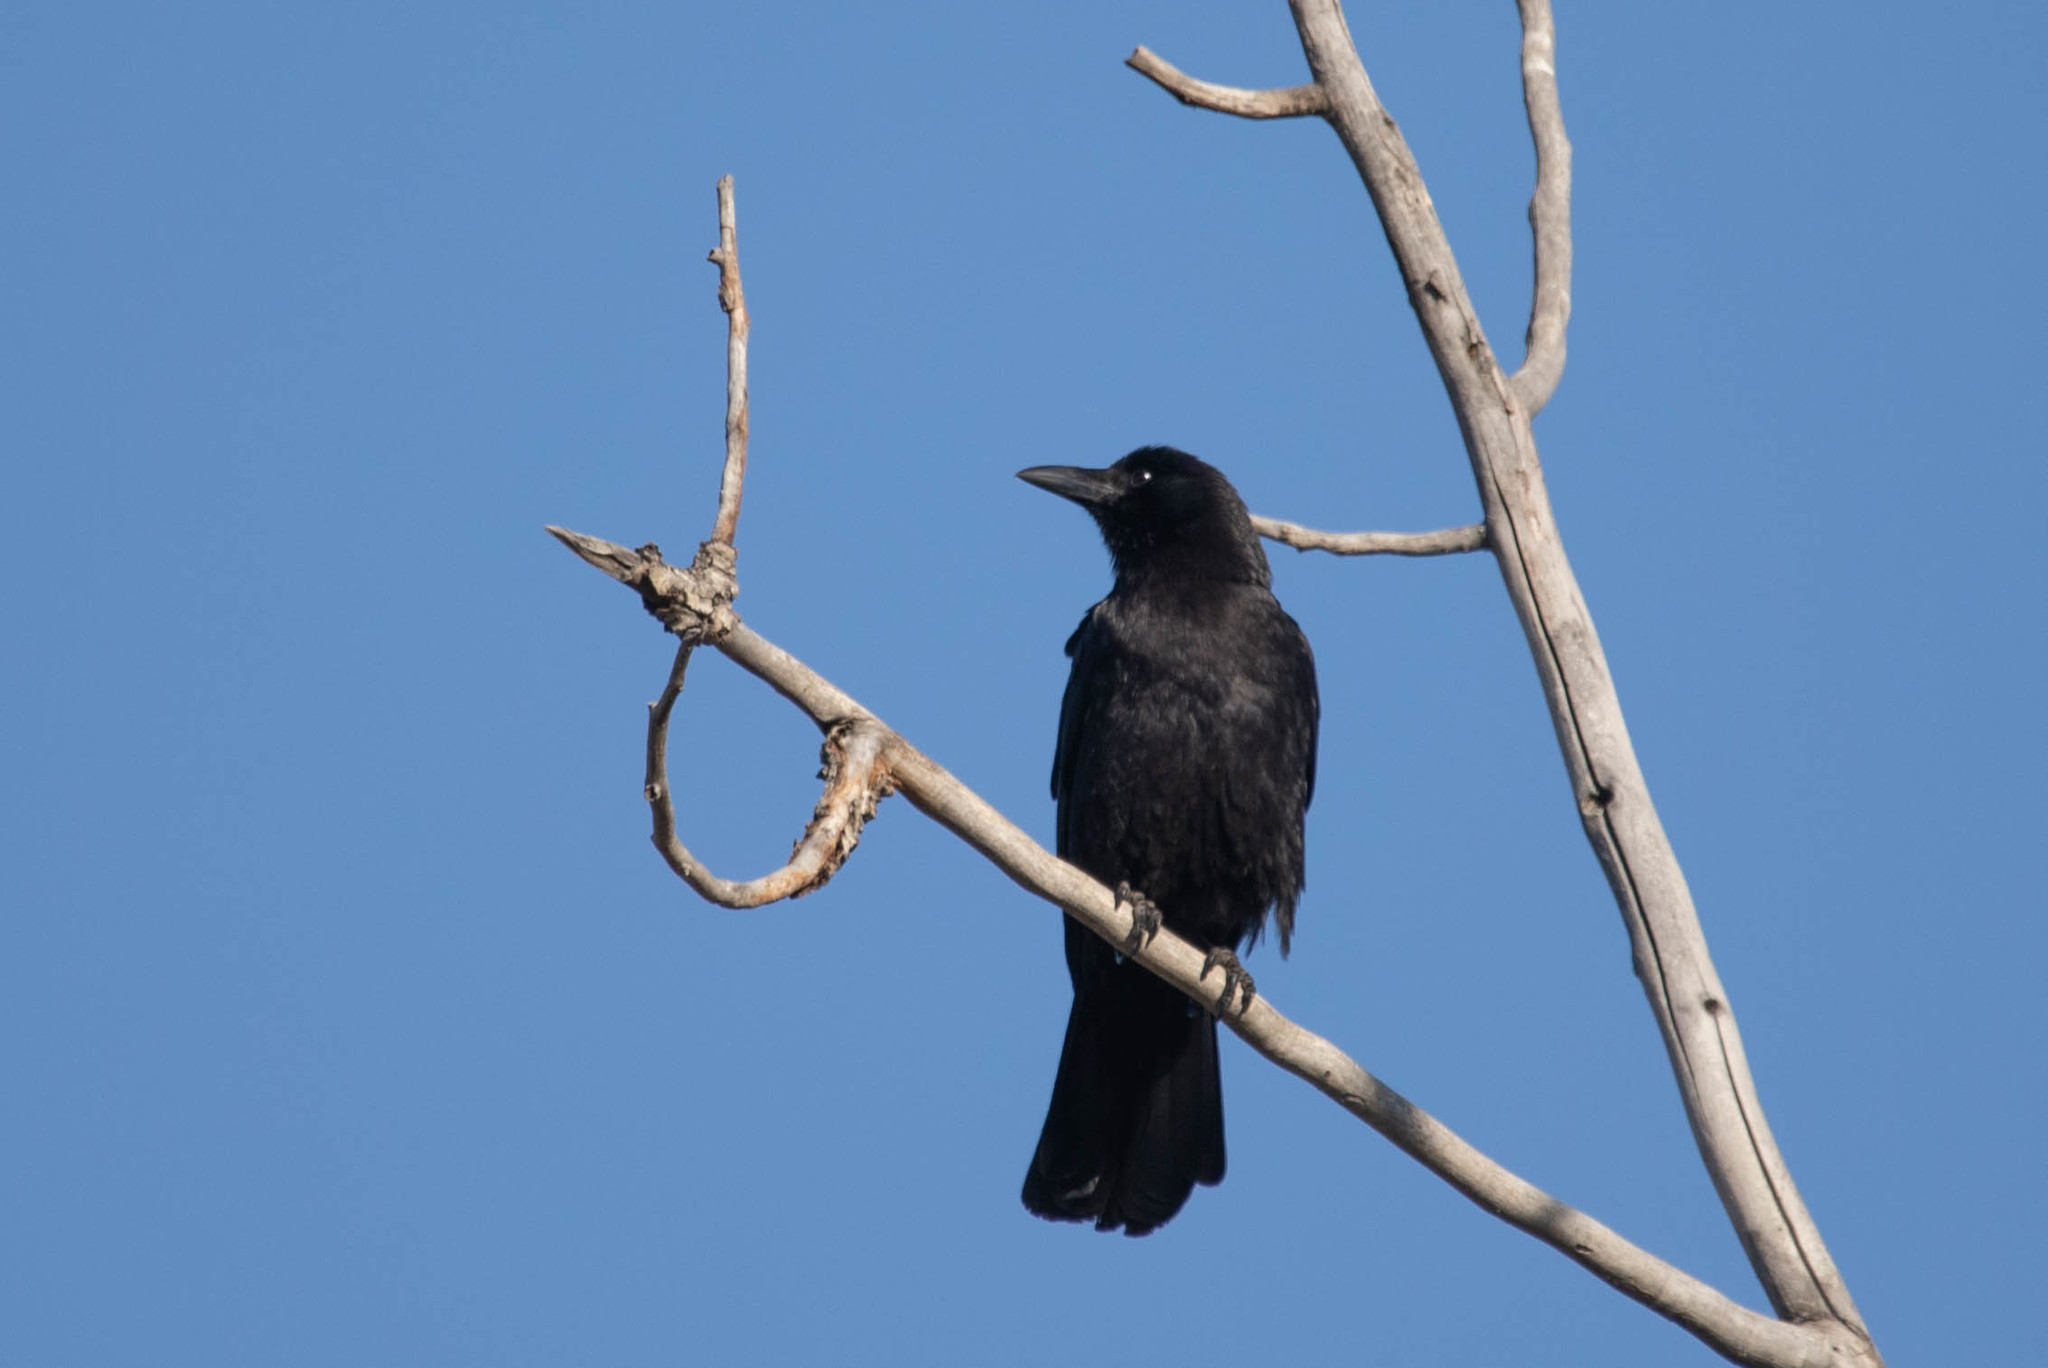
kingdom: Animalia
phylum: Chordata
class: Aves
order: Passeriformes
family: Corvidae
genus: Corvus
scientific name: Corvus brachyrhynchos
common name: American crow
